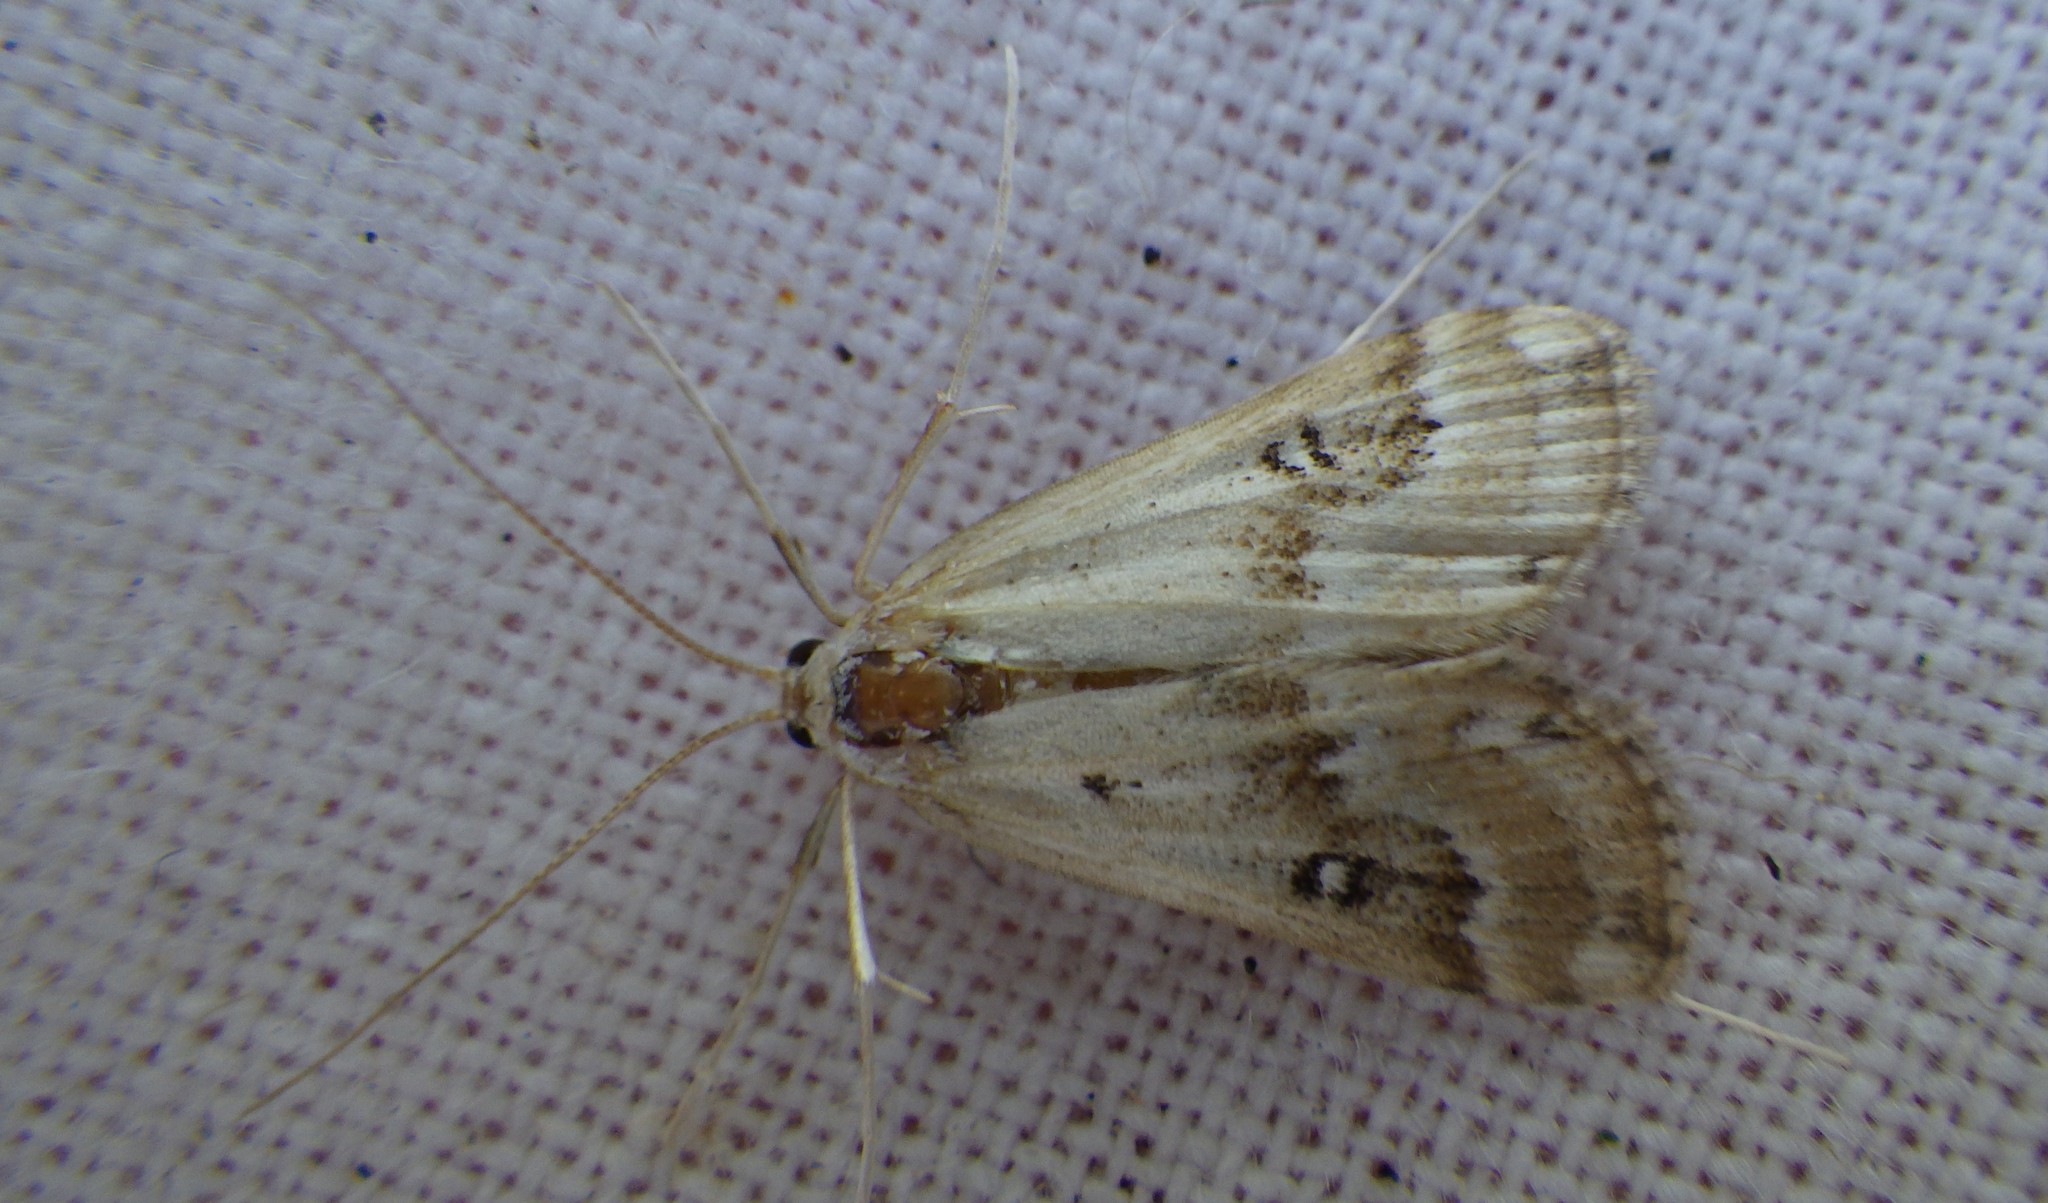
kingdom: Animalia
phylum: Arthropoda
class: Insecta
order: Lepidoptera
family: Crambidae
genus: Parapoynx
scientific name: Parapoynx stratiotata
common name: Ringed china-mark
